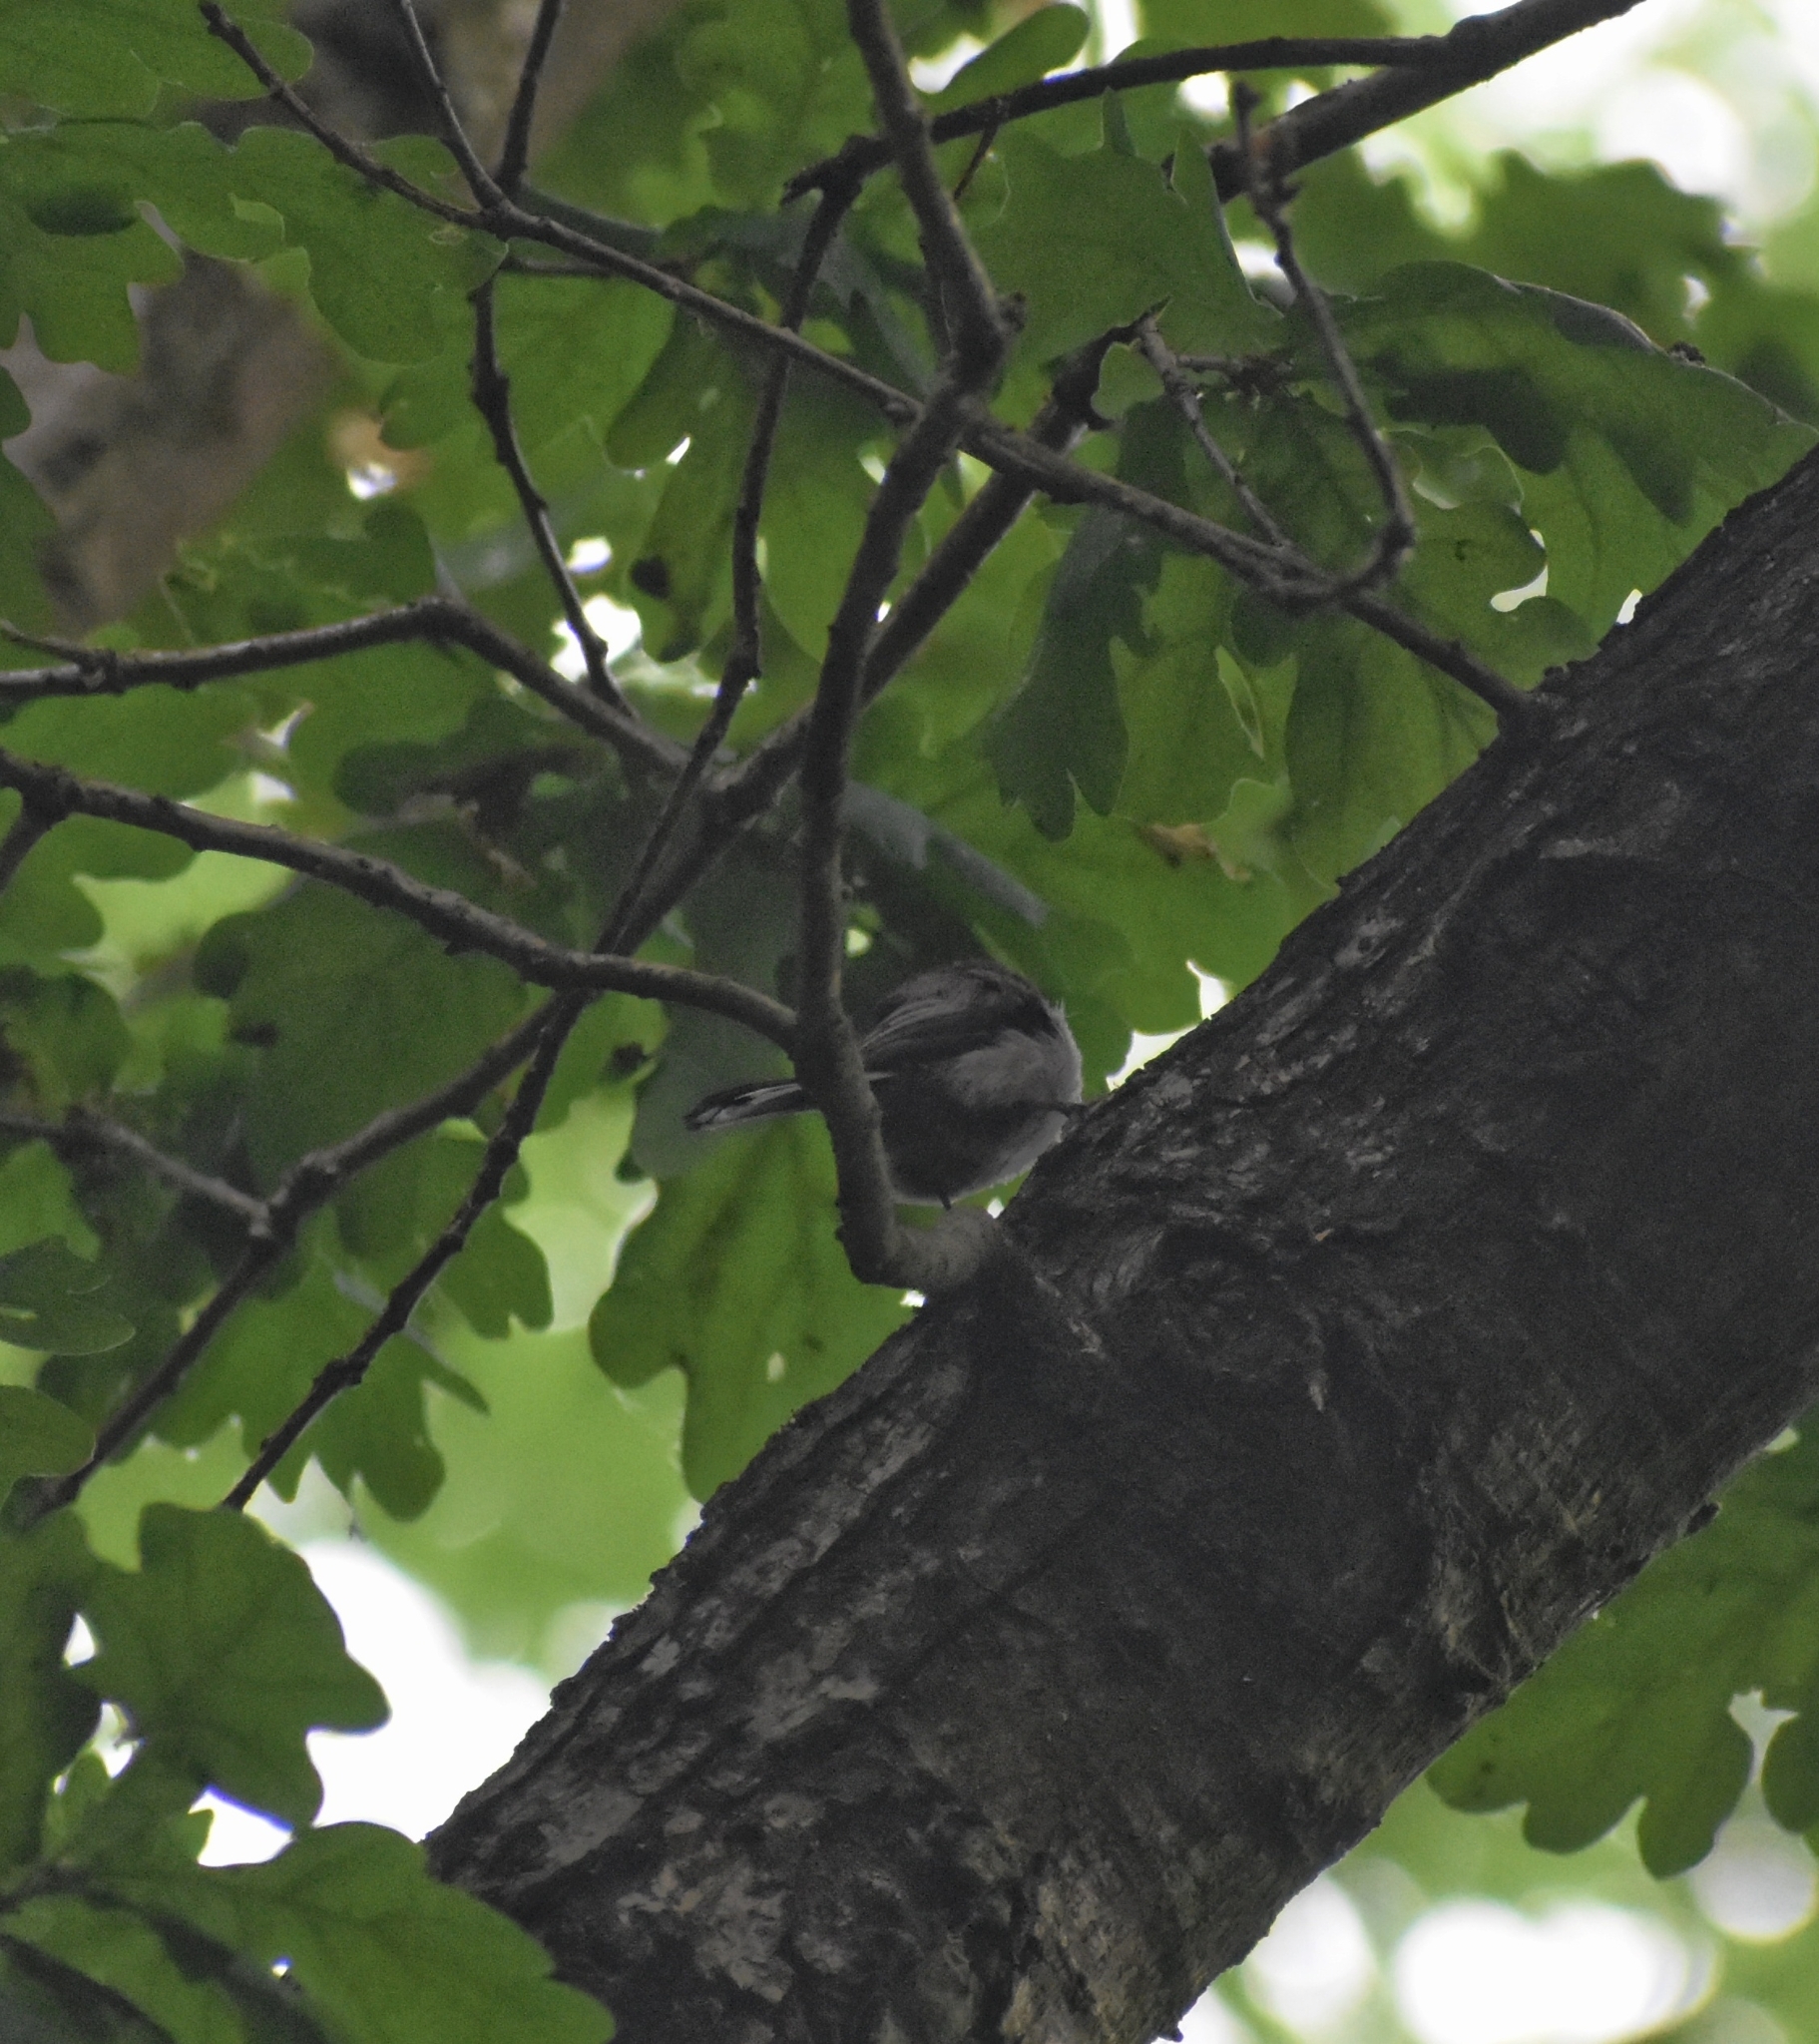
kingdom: Animalia
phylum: Chordata
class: Aves
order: Passeriformes
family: Aegithalidae
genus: Aegithalos
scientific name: Aegithalos caudatus
